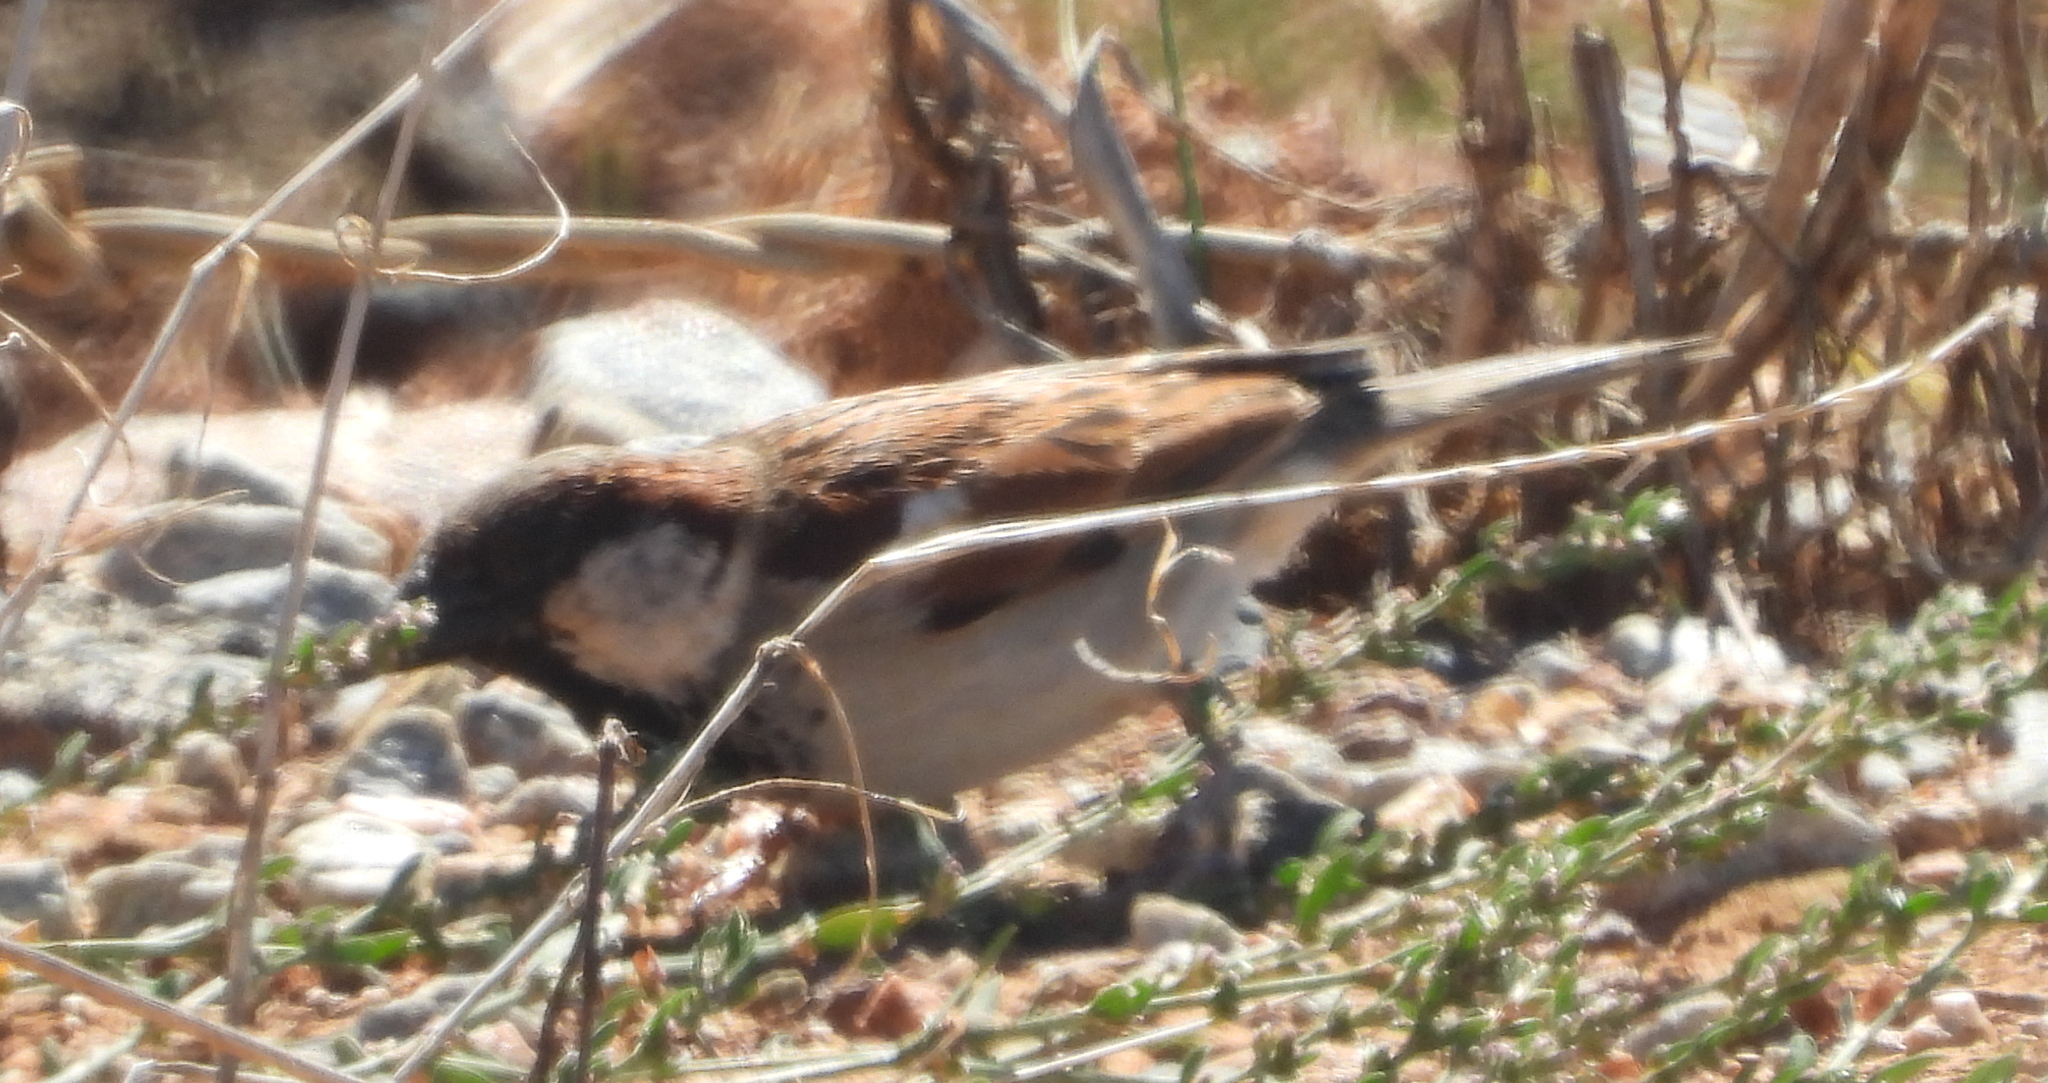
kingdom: Animalia
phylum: Chordata
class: Aves
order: Passeriformes
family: Passeridae
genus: Passer
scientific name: Passer domesticus
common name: House sparrow
